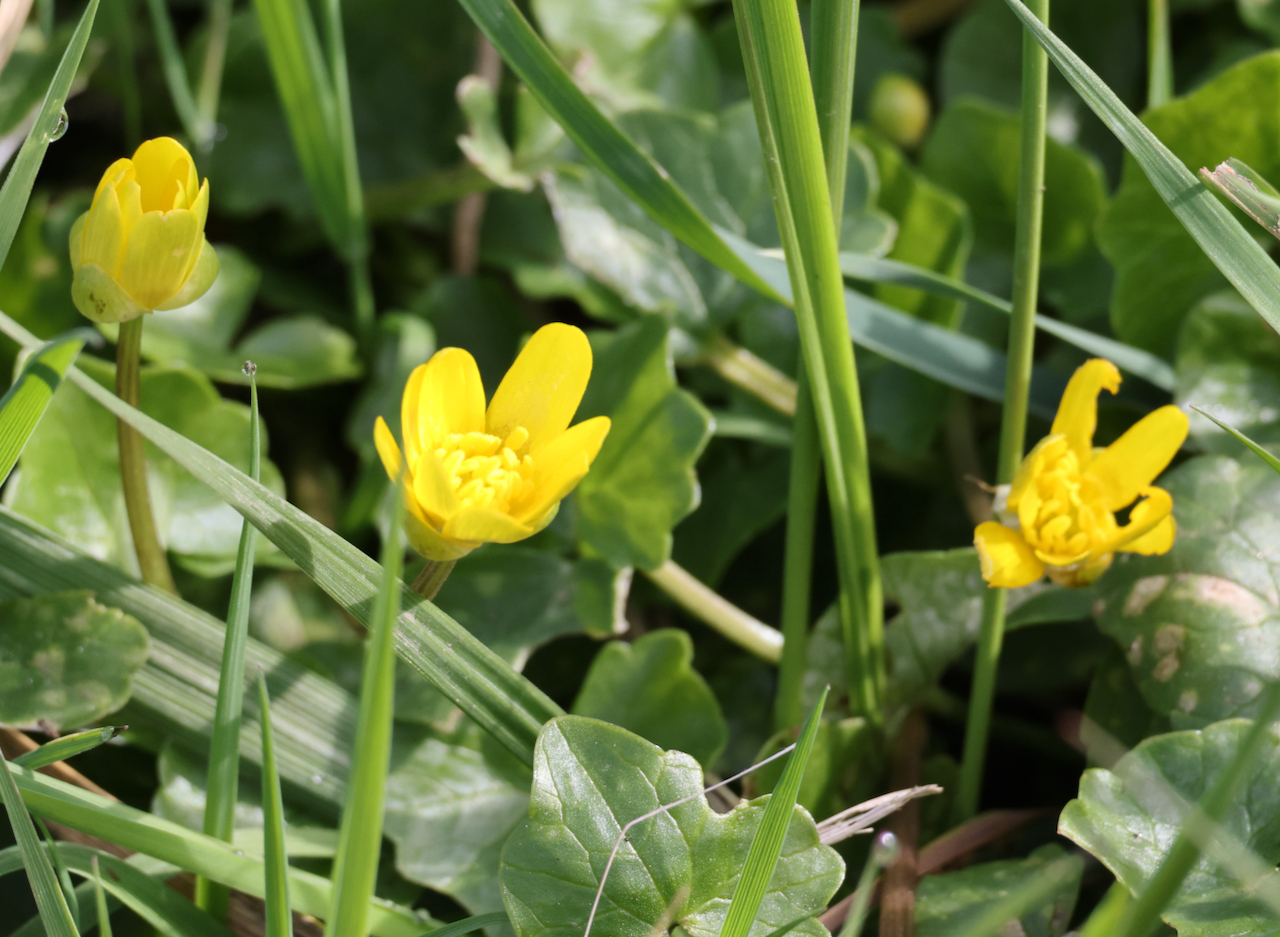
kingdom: Plantae
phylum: Tracheophyta
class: Magnoliopsida
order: Ranunculales
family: Ranunculaceae
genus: Ficaria
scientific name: Ficaria verna
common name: Lesser celandine
